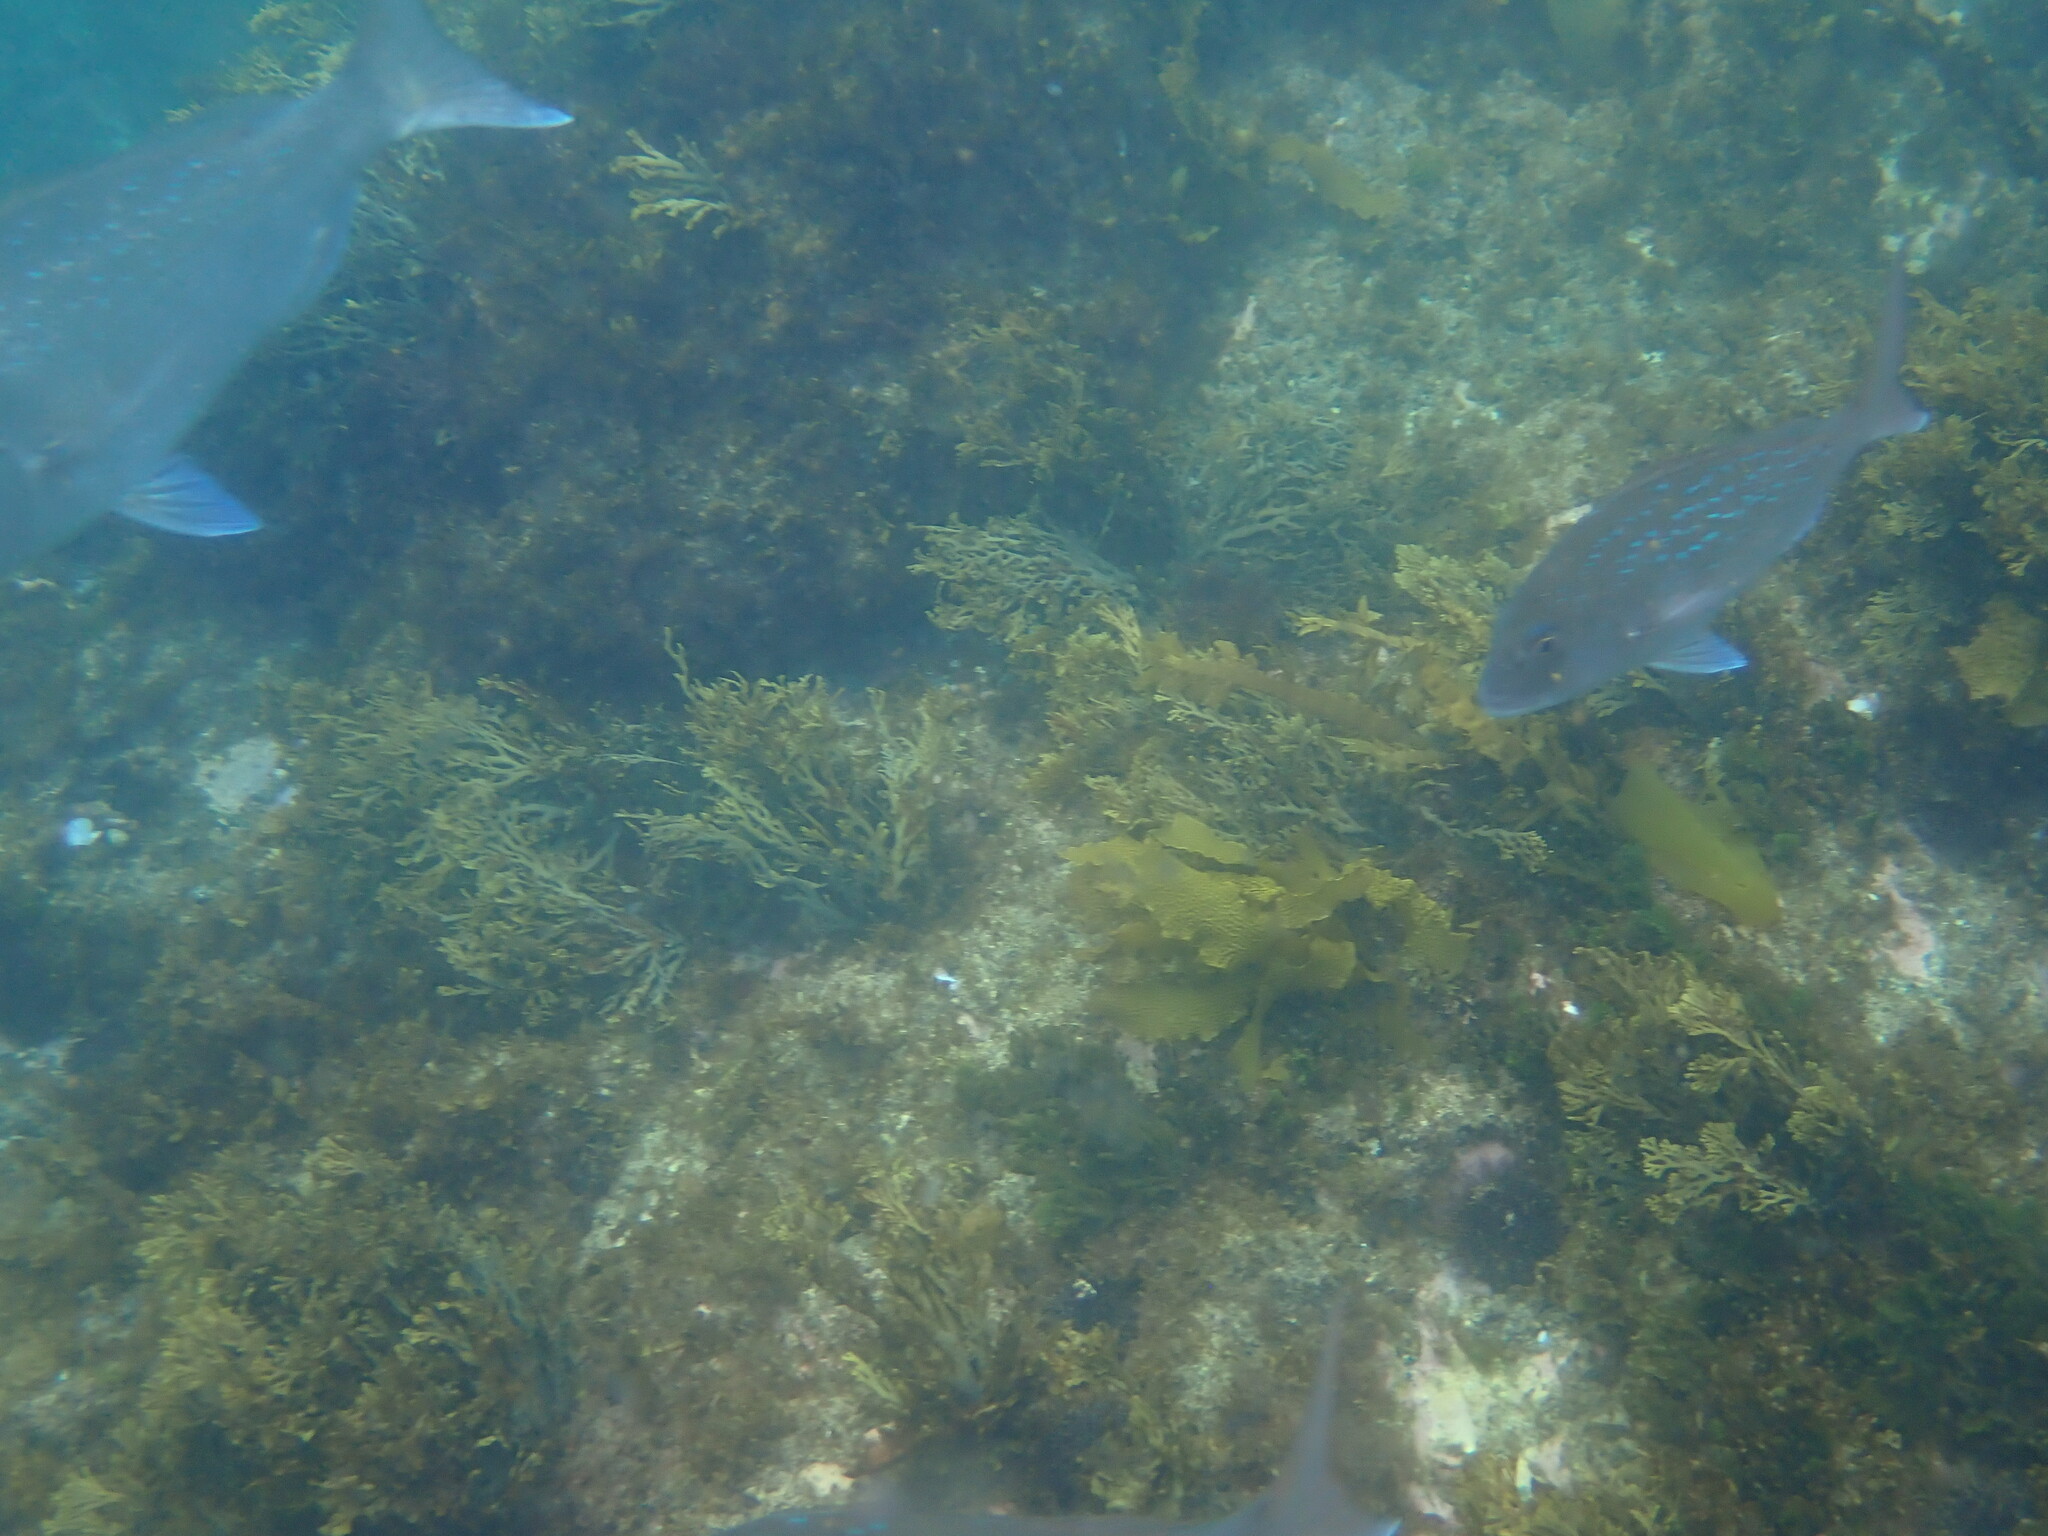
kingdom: Animalia
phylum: Chordata
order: Perciformes
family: Sparidae
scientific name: Sparidae
